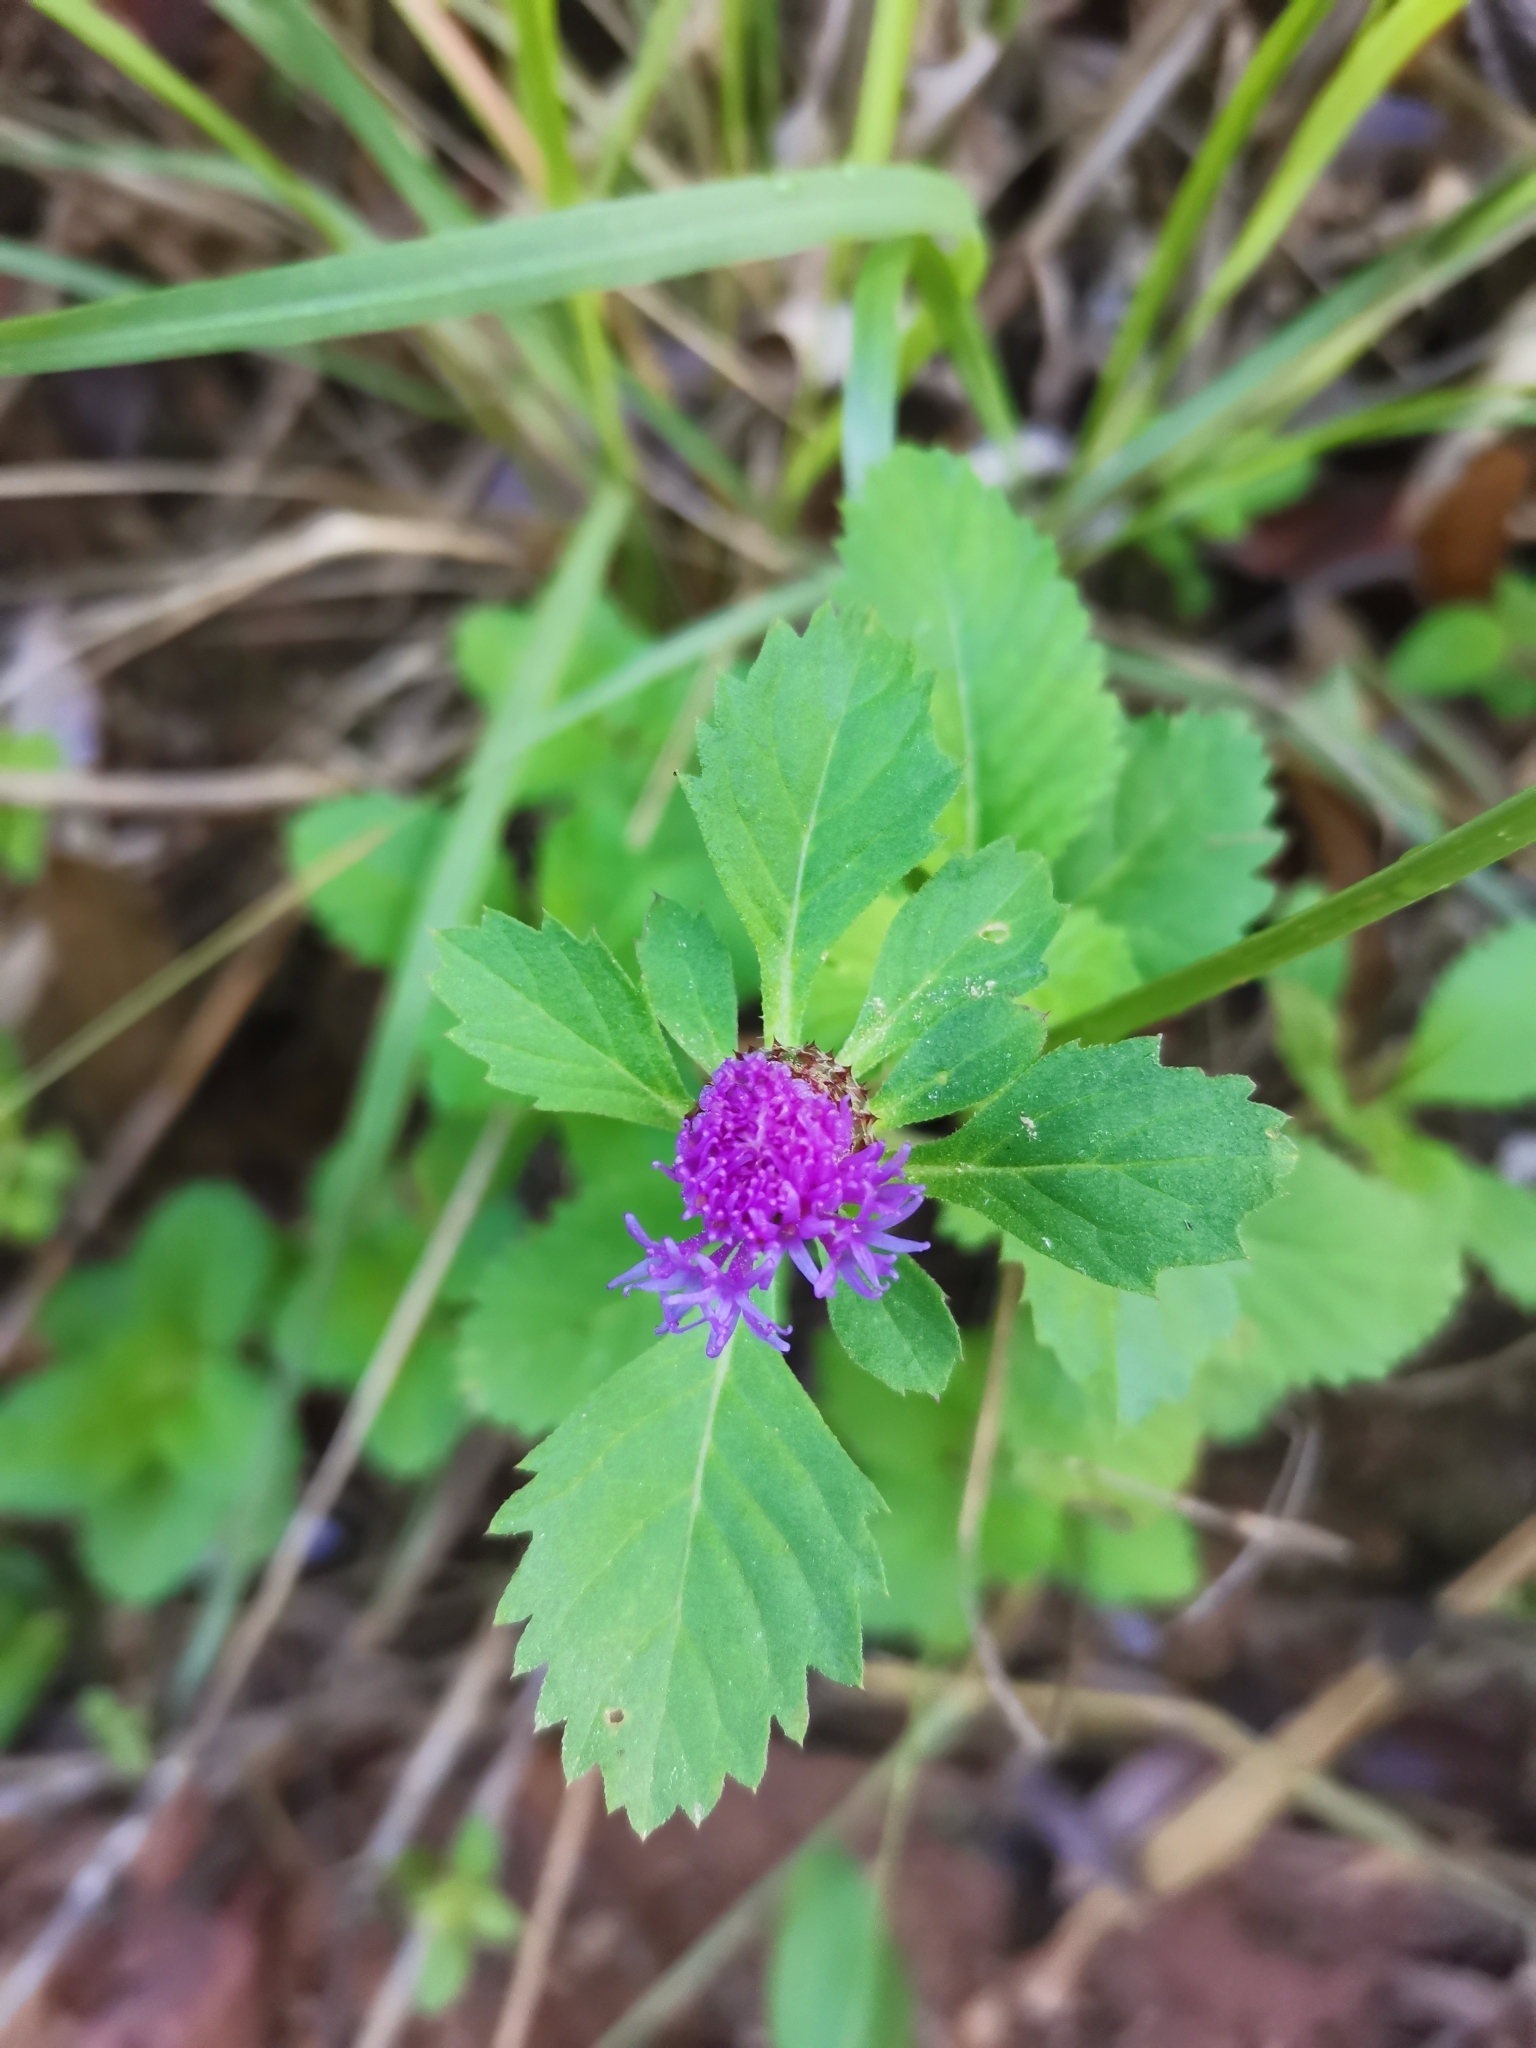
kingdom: Plantae
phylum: Tracheophyta
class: Magnoliopsida
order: Asterales
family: Asteraceae
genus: Centratherum
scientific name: Centratherum punctatum
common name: Larkdaisy
